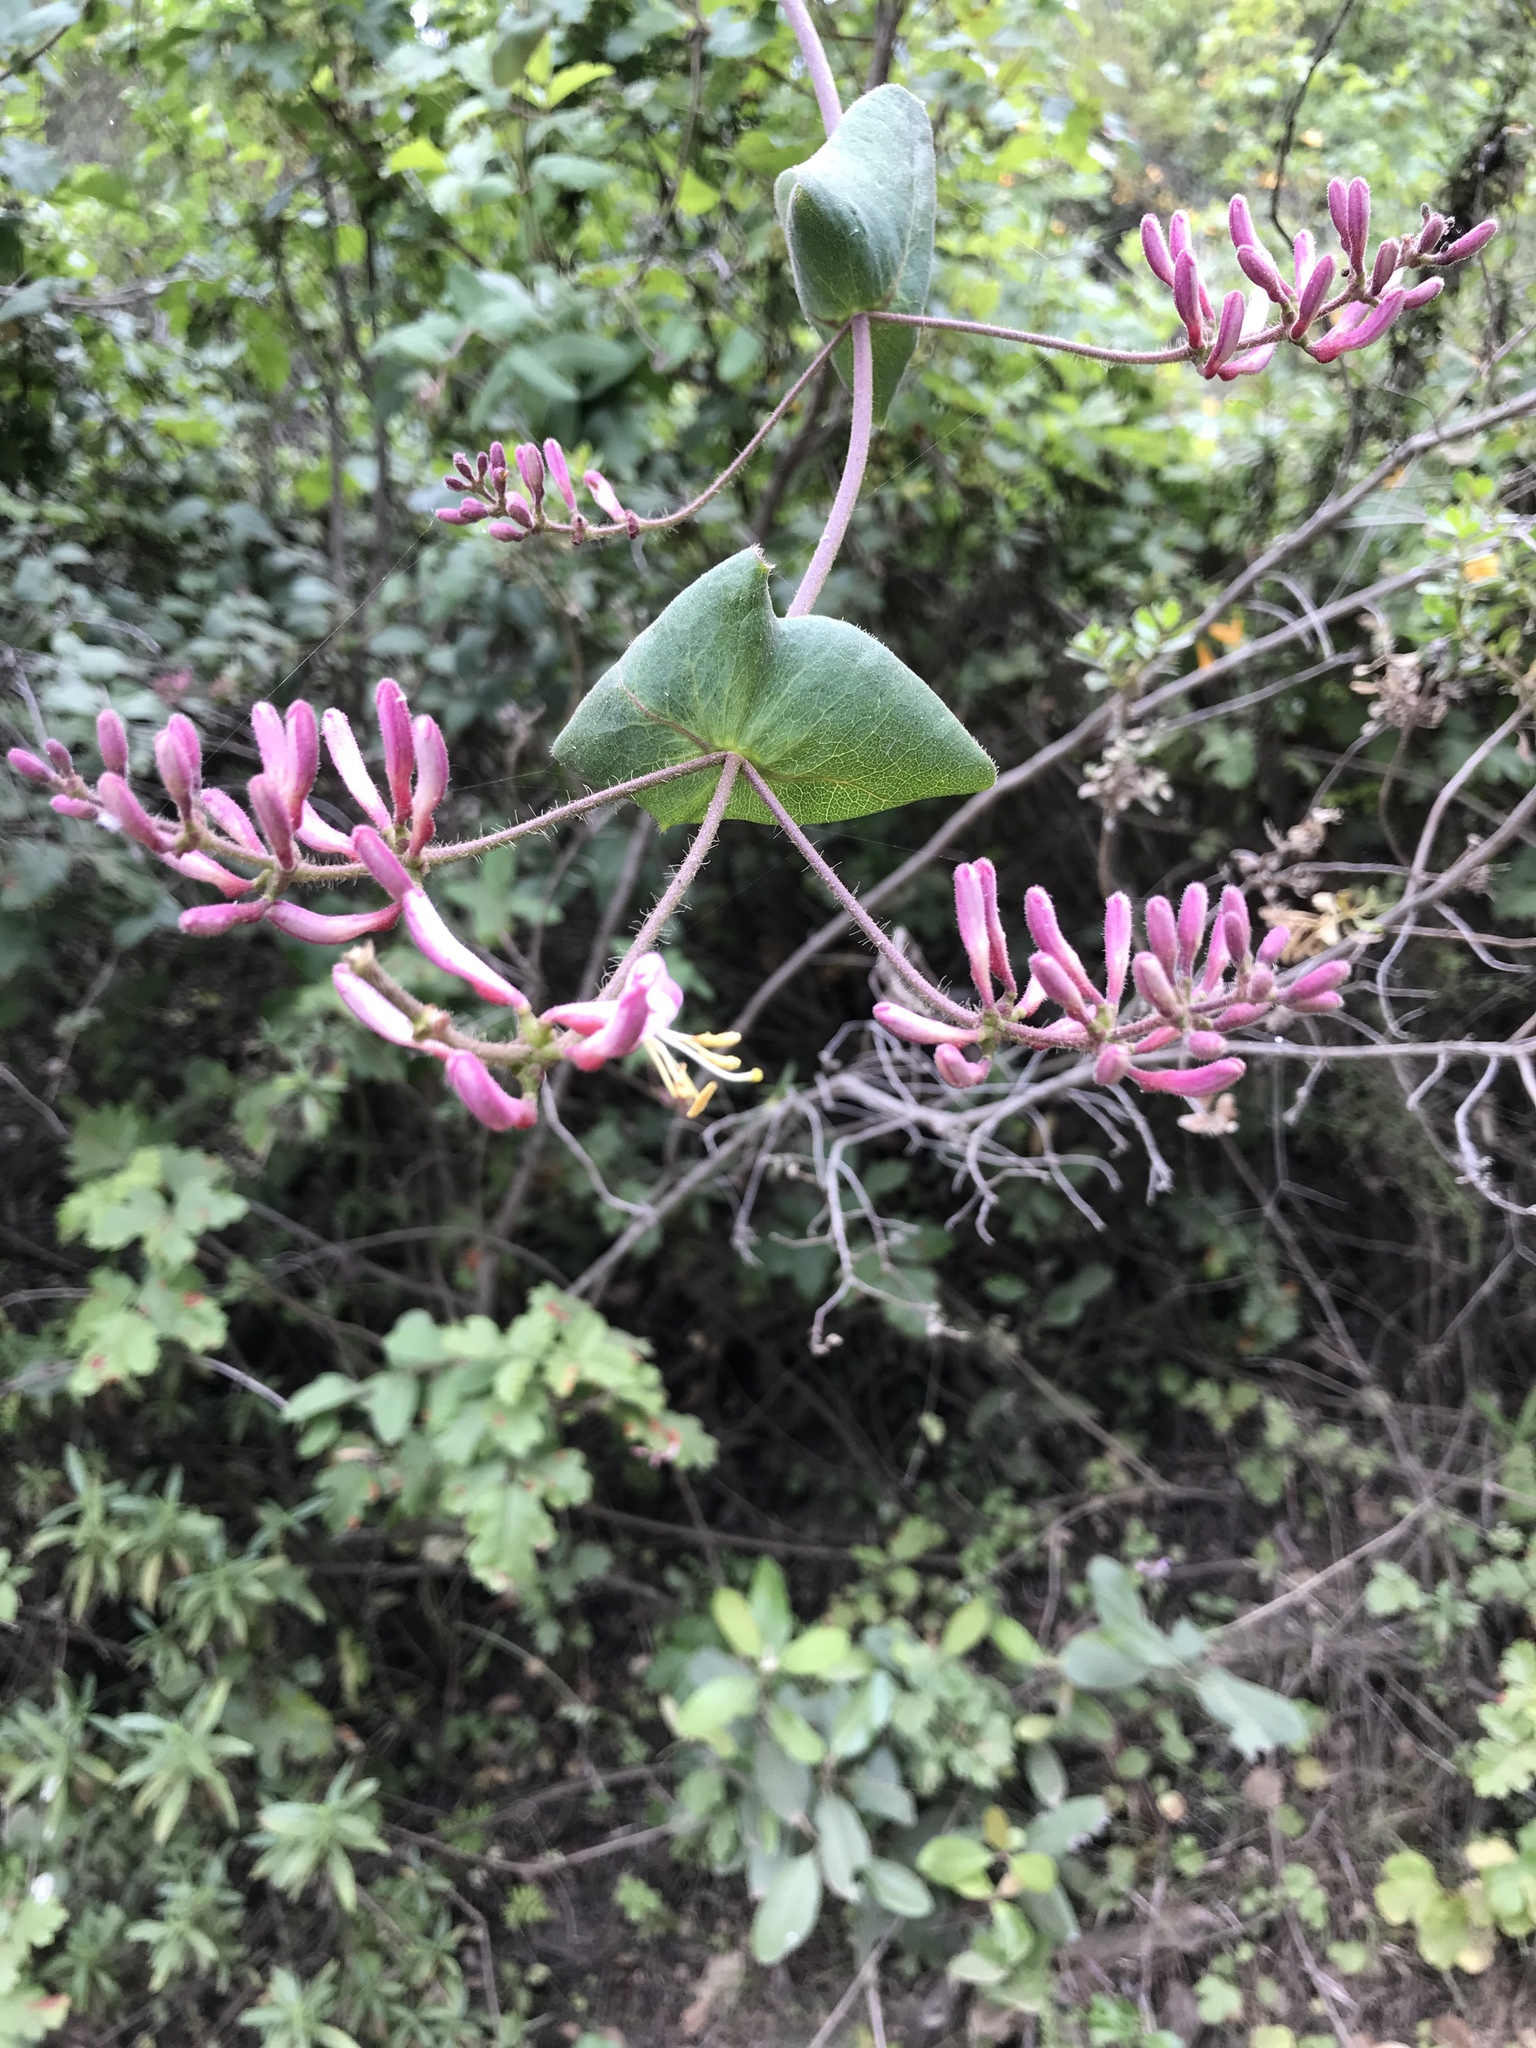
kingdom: Plantae
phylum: Tracheophyta
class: Magnoliopsida
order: Dipsacales
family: Caprifoliaceae
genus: Lonicera
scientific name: Lonicera hispidula
